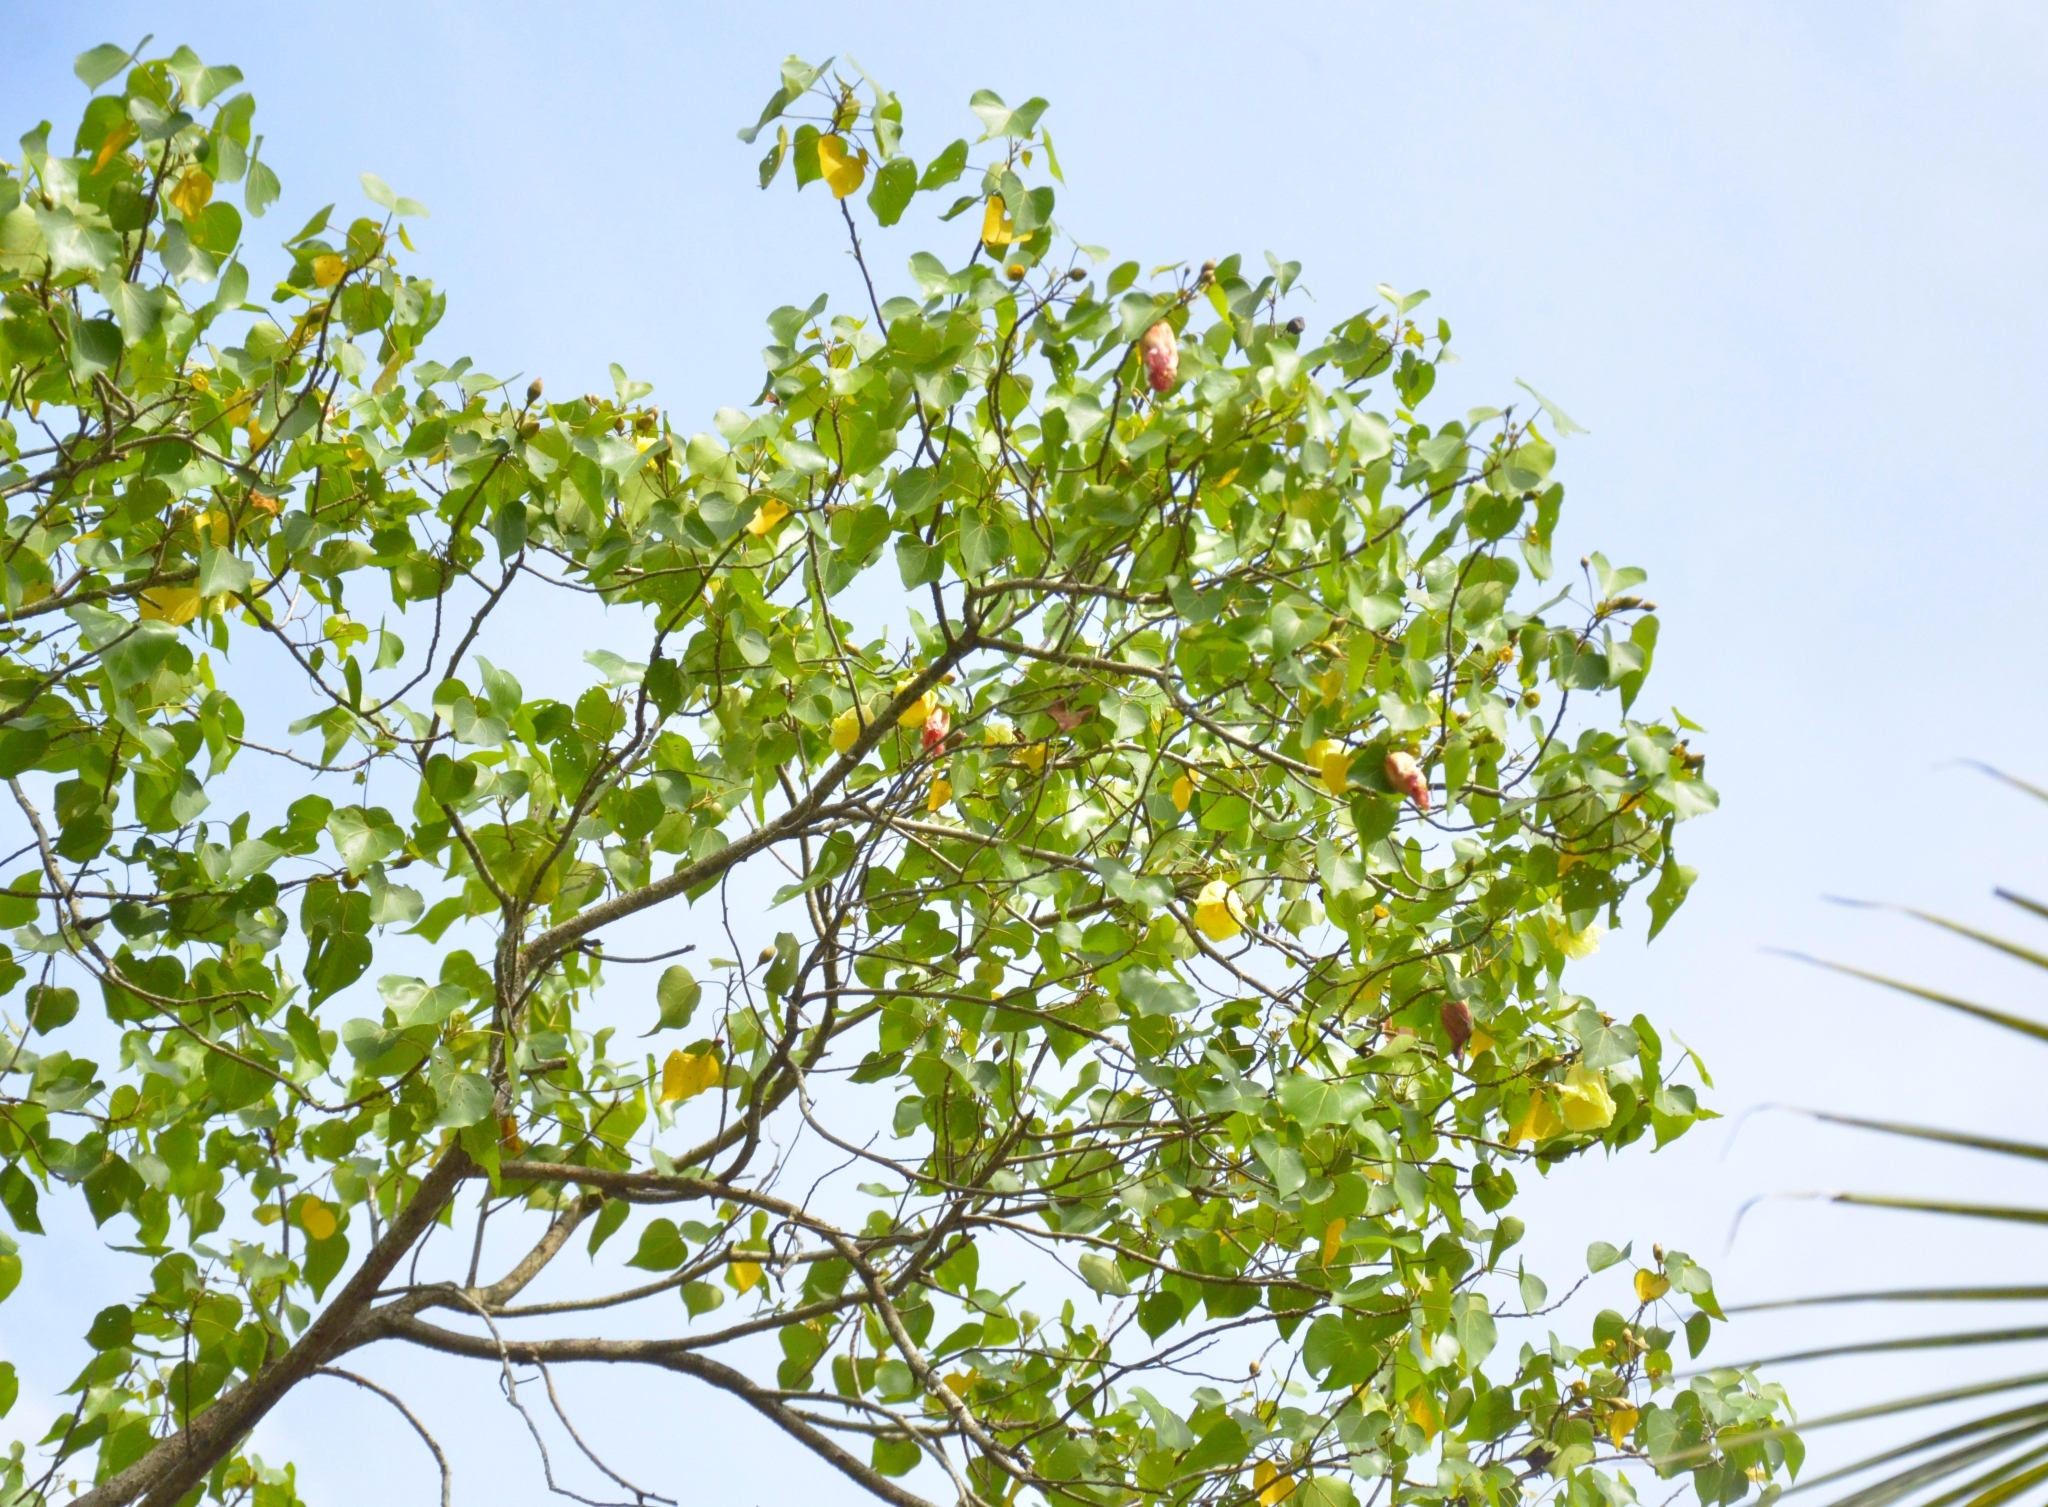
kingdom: Plantae
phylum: Tracheophyta
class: Magnoliopsida
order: Malvales
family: Malvaceae
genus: Thespesia
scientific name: Thespesia populnea
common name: Seaside mahoe
